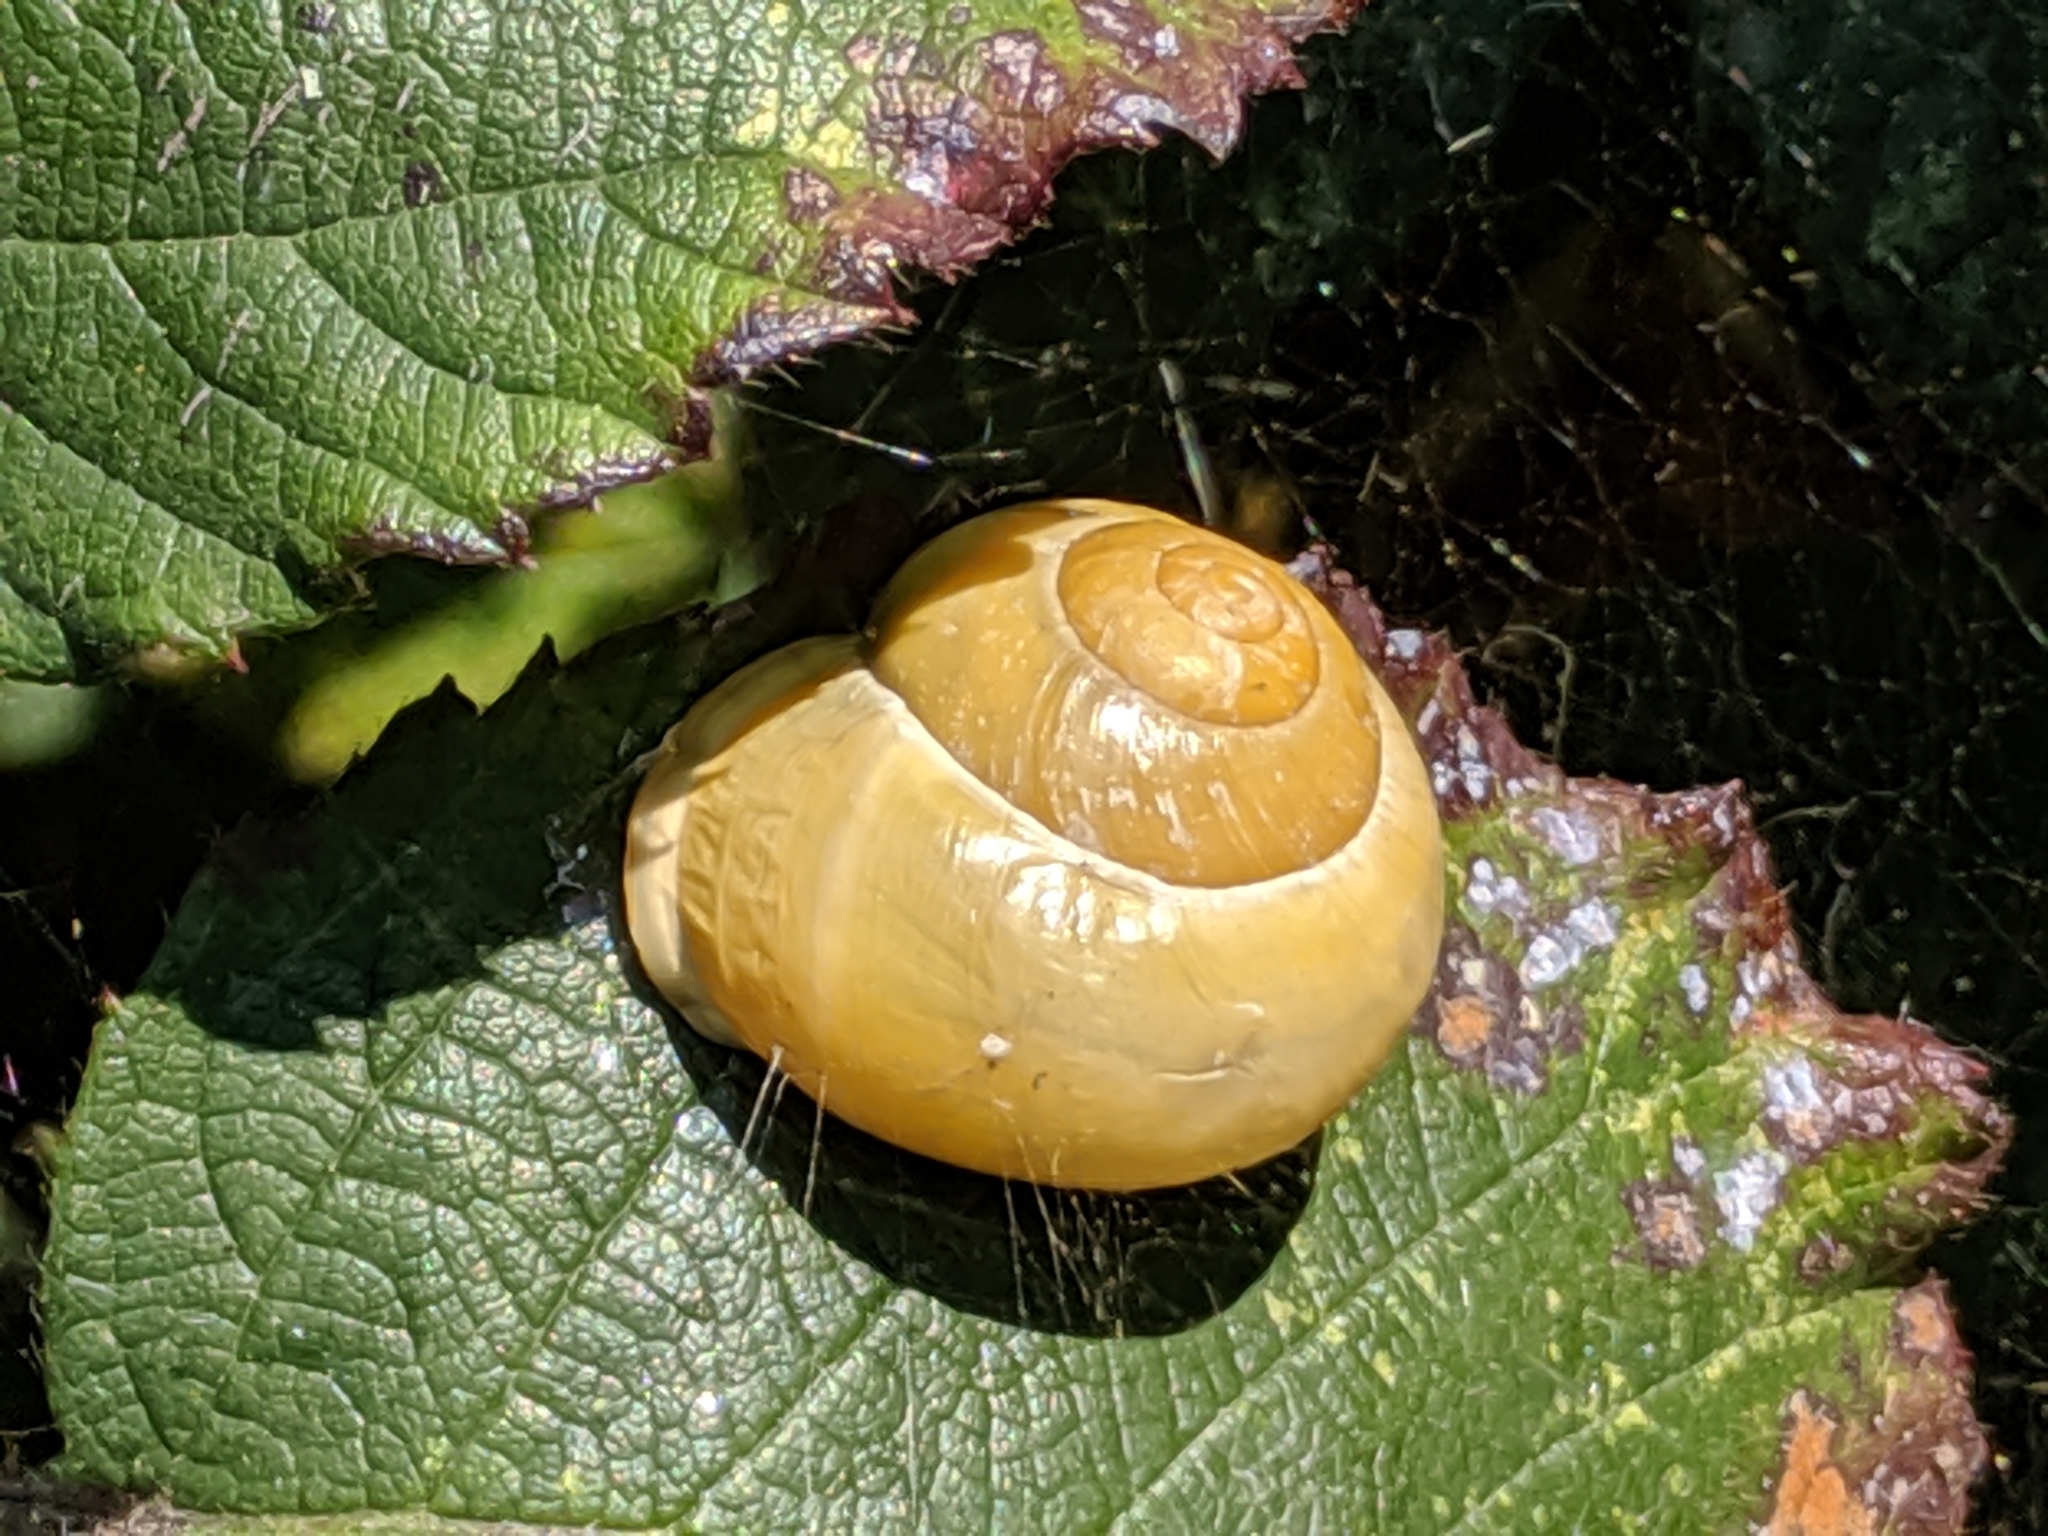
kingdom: Animalia
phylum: Mollusca
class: Gastropoda
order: Stylommatophora
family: Helicidae
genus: Cepaea
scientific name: Cepaea hortensis
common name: White-lip gardensnail
